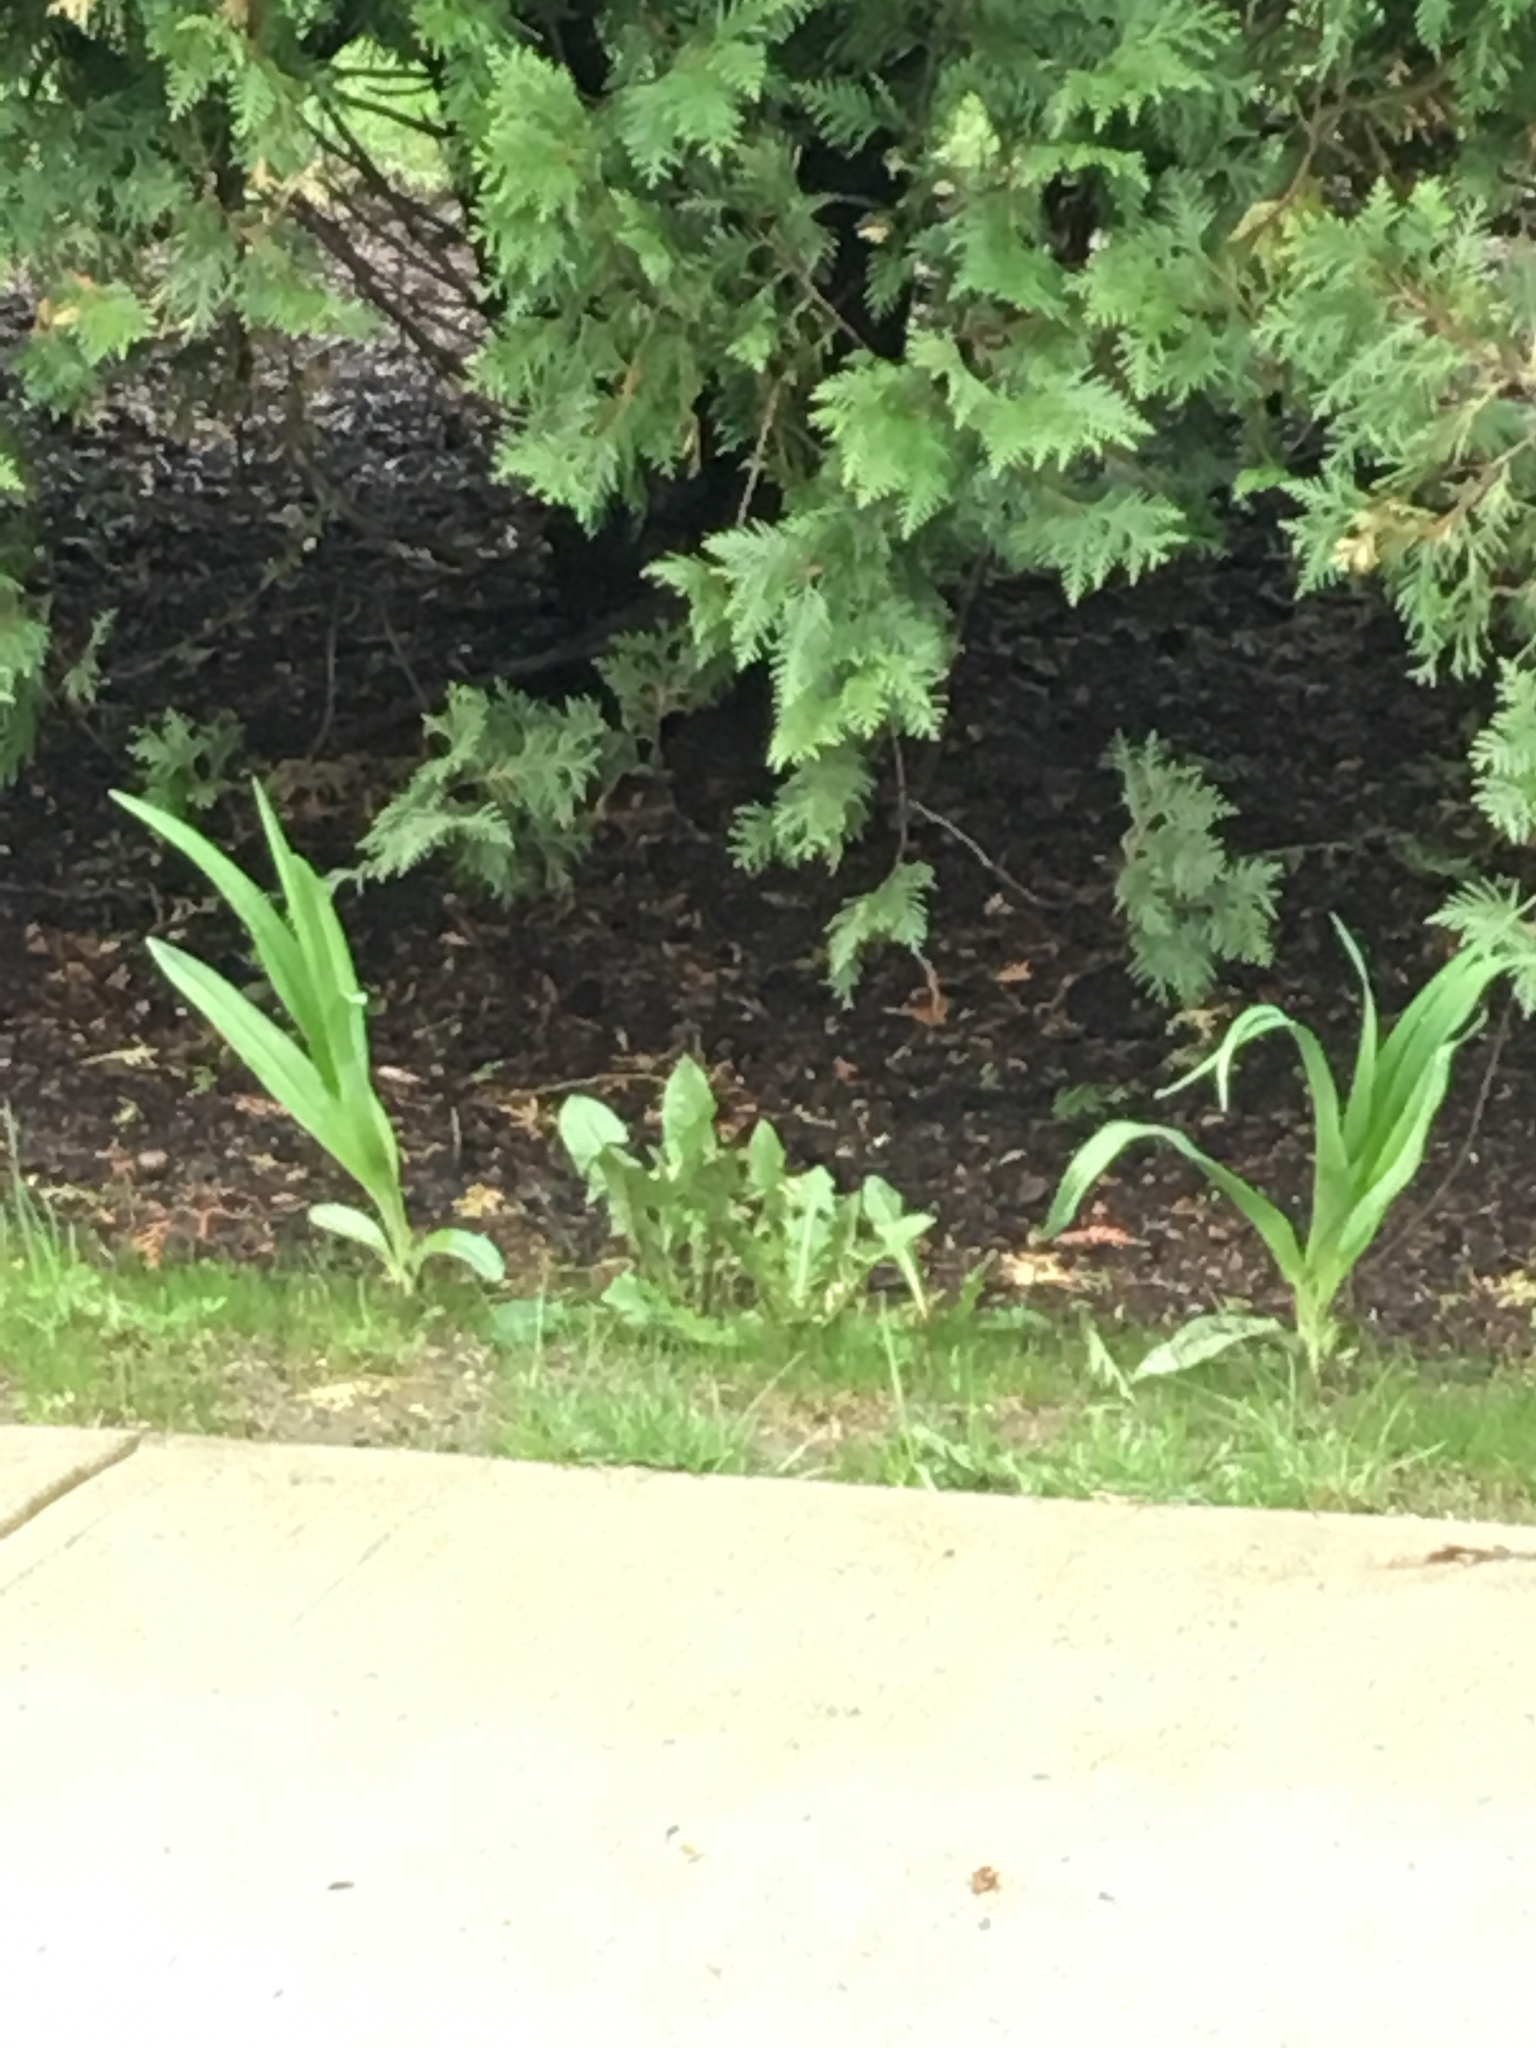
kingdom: Plantae
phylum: Tracheophyta
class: Magnoliopsida
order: Asterales
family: Asteraceae
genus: Taraxacum
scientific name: Taraxacum officinale
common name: Common dandelion
